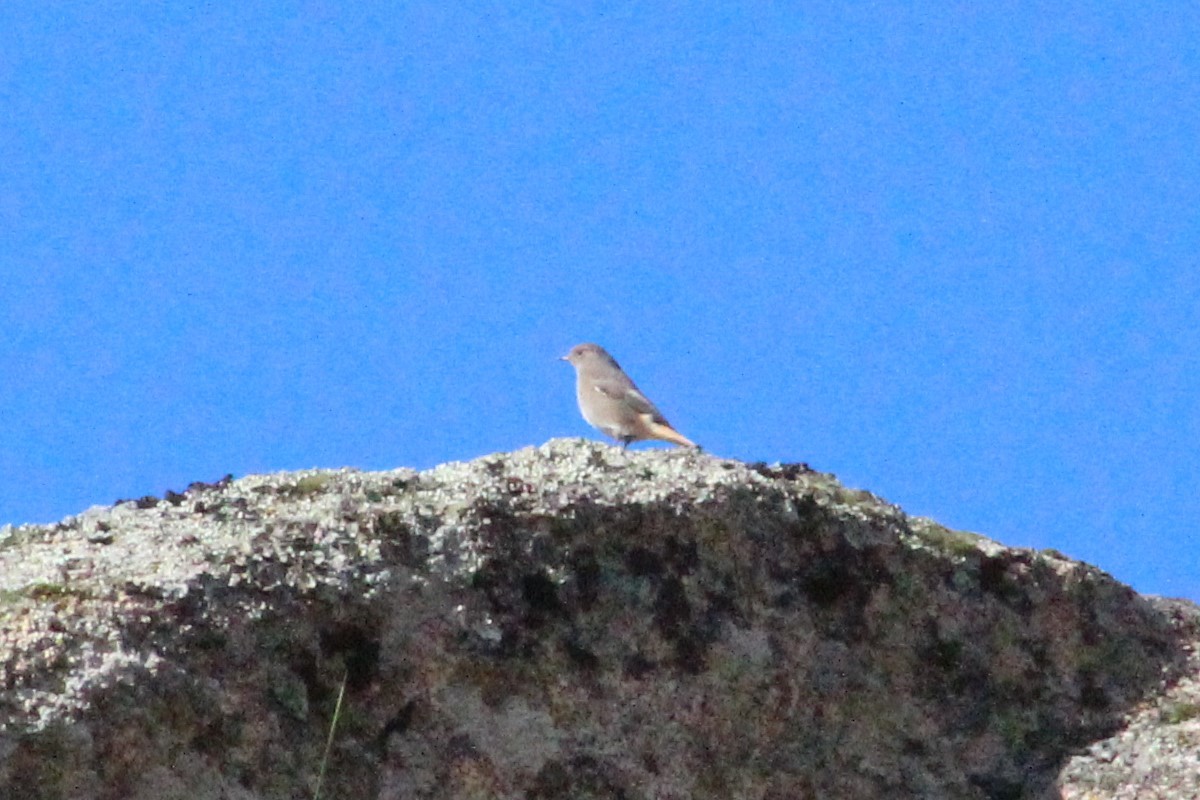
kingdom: Animalia
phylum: Chordata
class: Aves
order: Passeriformes
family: Muscicapidae
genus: Phoenicurus
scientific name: Phoenicurus ochruros
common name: Black redstart
